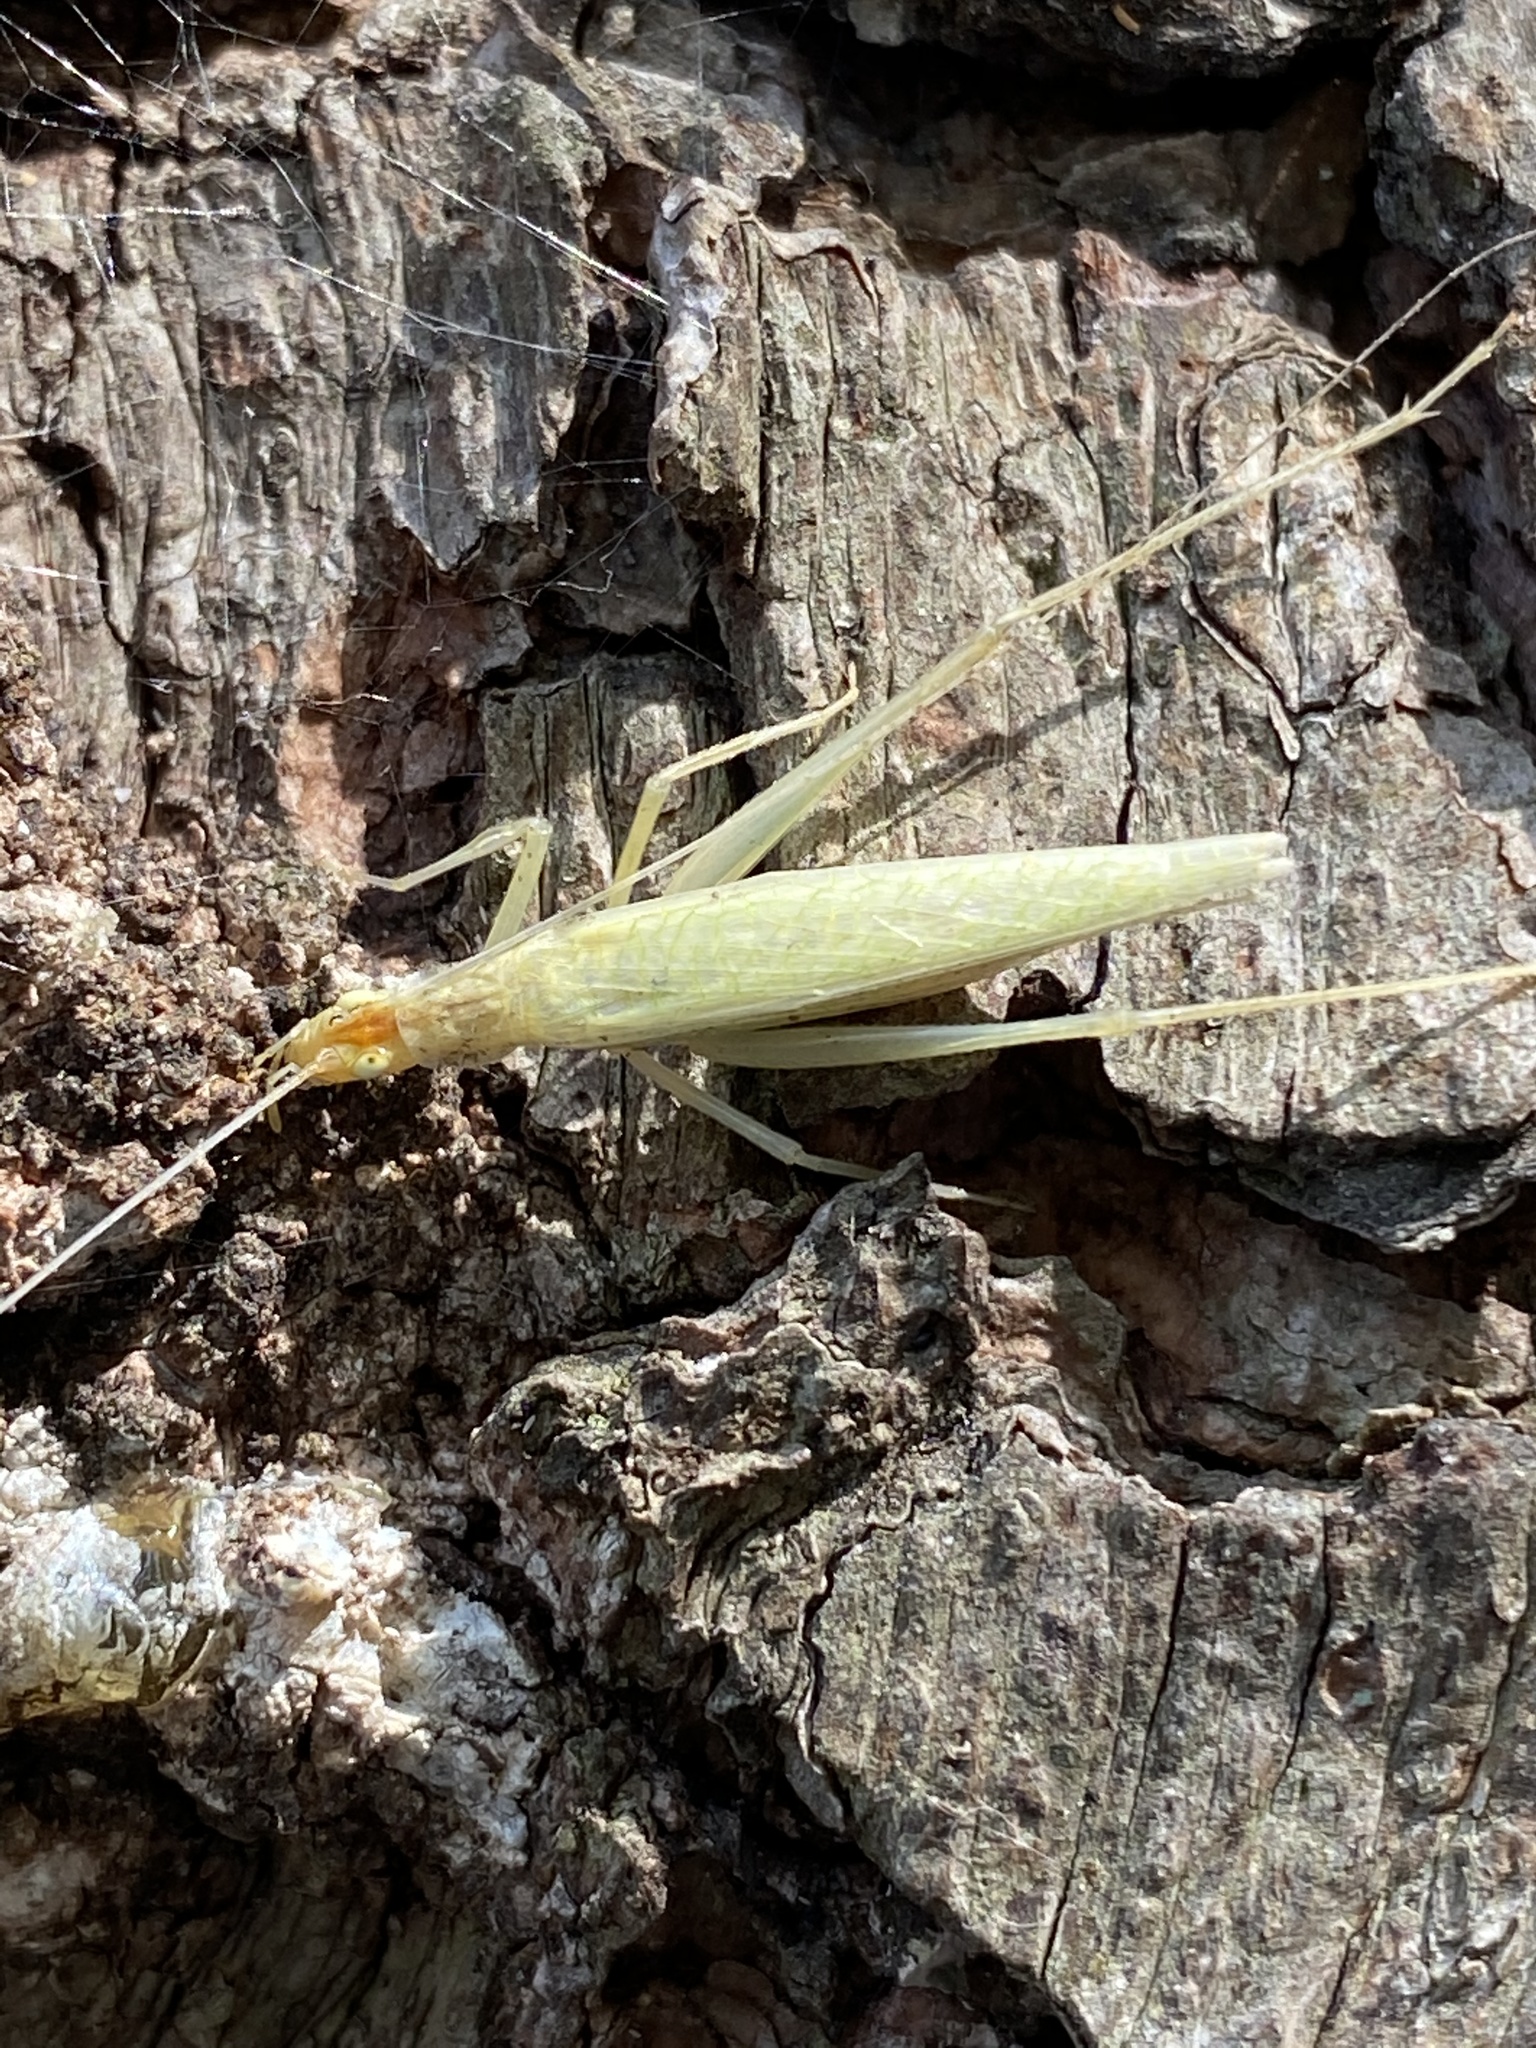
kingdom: Animalia
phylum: Arthropoda
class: Insecta
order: Orthoptera
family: Gryllidae
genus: Oecanthus
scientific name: Oecanthus niveus
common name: Narrow-winged tree cricket
